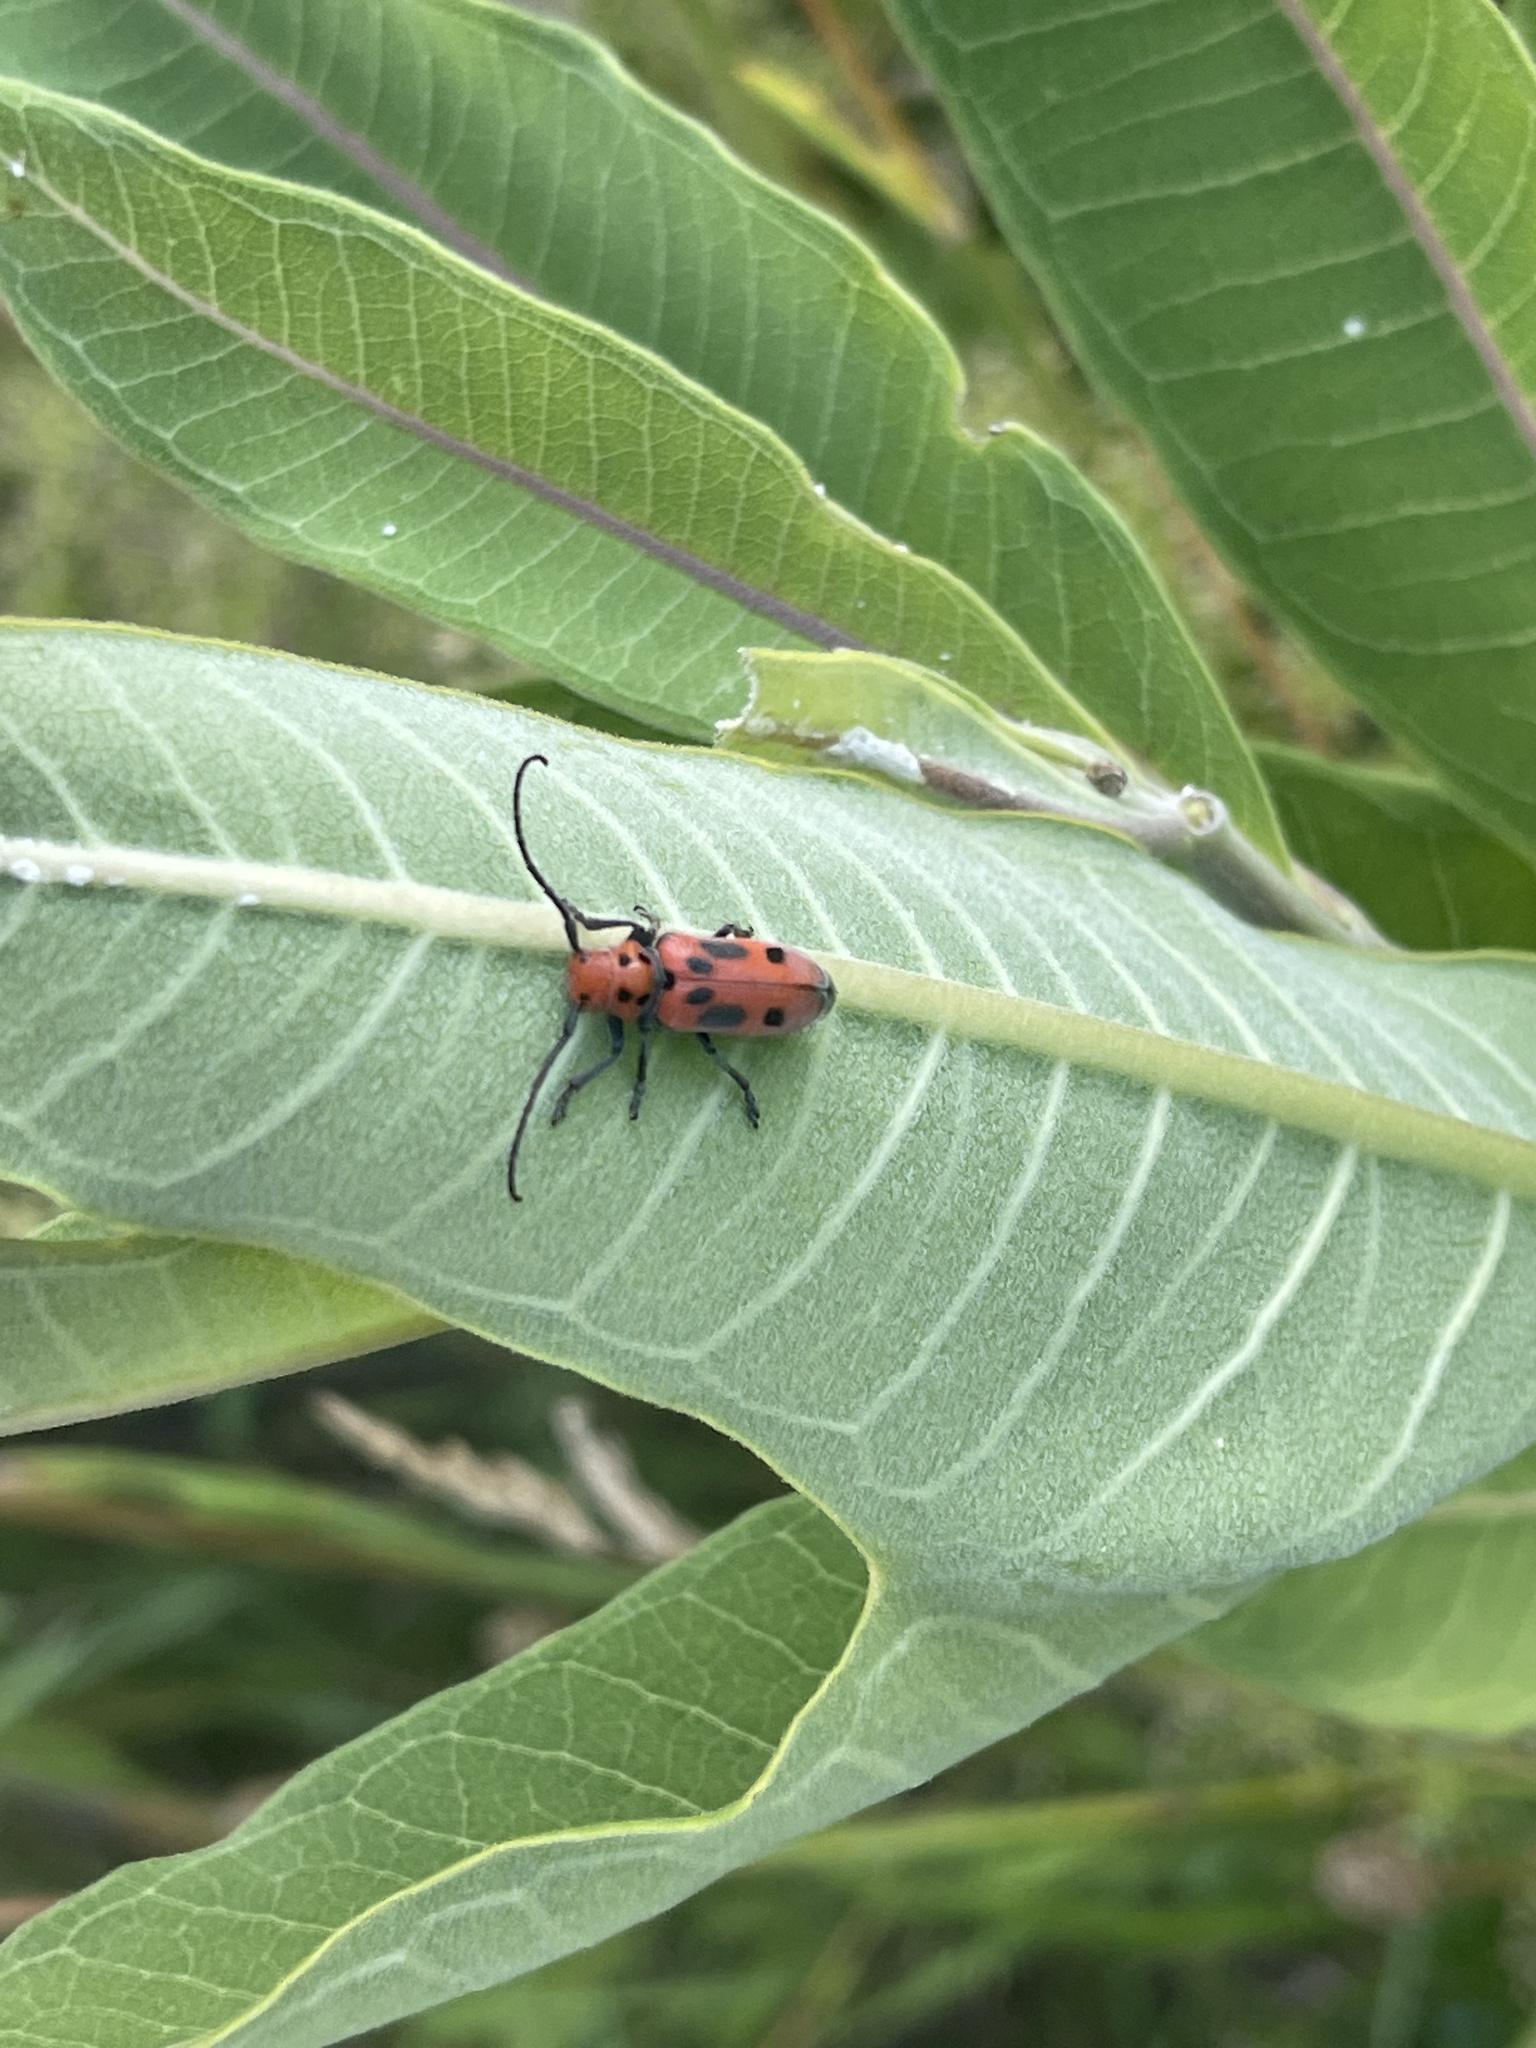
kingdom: Animalia
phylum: Arthropoda
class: Insecta
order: Coleoptera
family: Cerambycidae
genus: Tetraopes
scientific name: Tetraopes tetrophthalmus
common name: Red milkweed beetle
